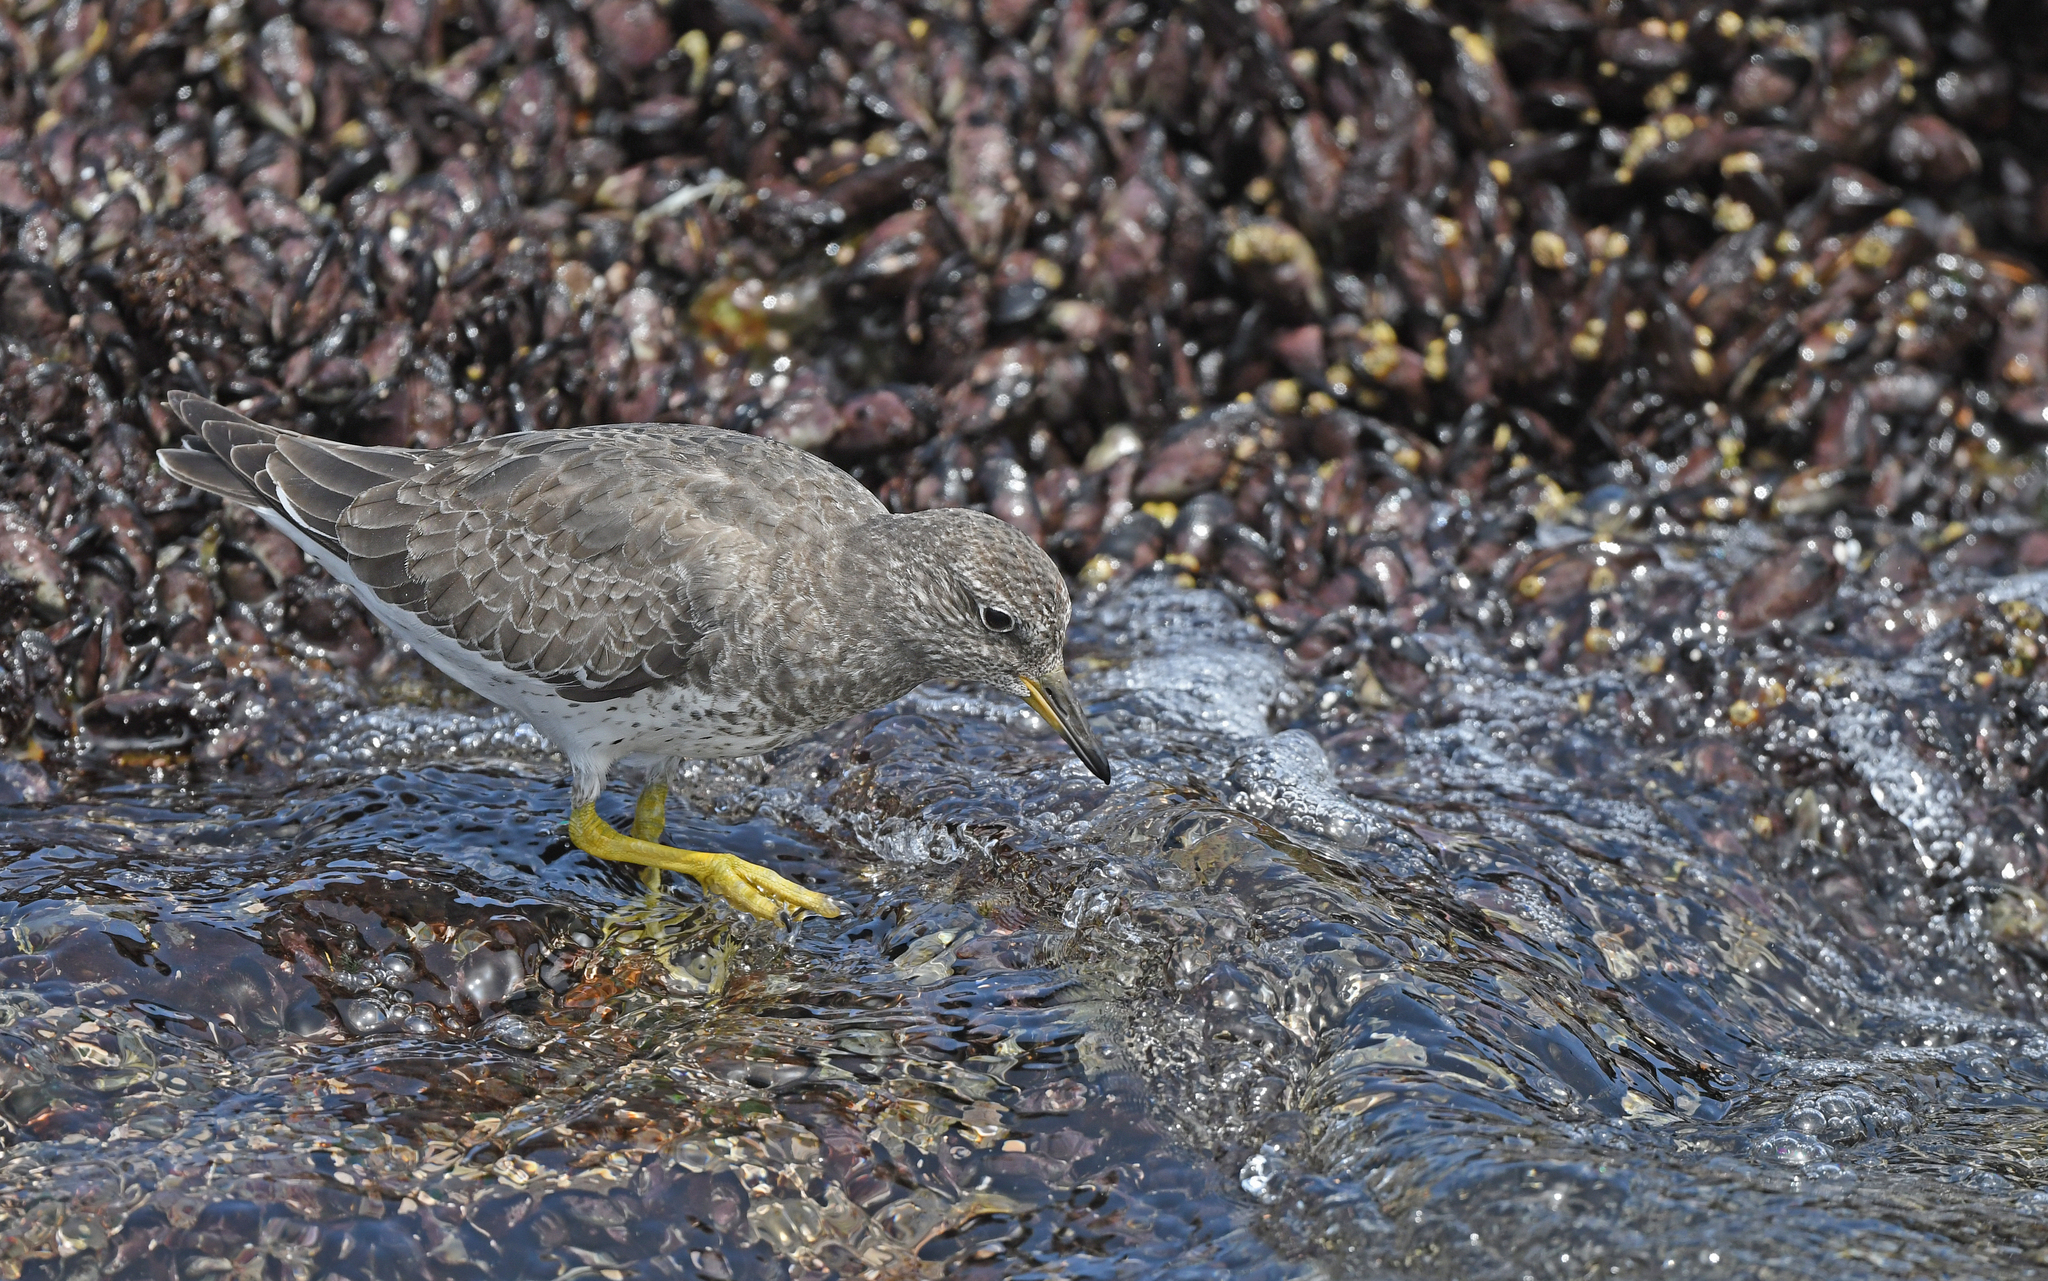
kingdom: Animalia
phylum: Chordata
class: Aves
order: Charadriiformes
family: Scolopacidae
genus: Calidris
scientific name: Calidris virgata
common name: Surfbird
